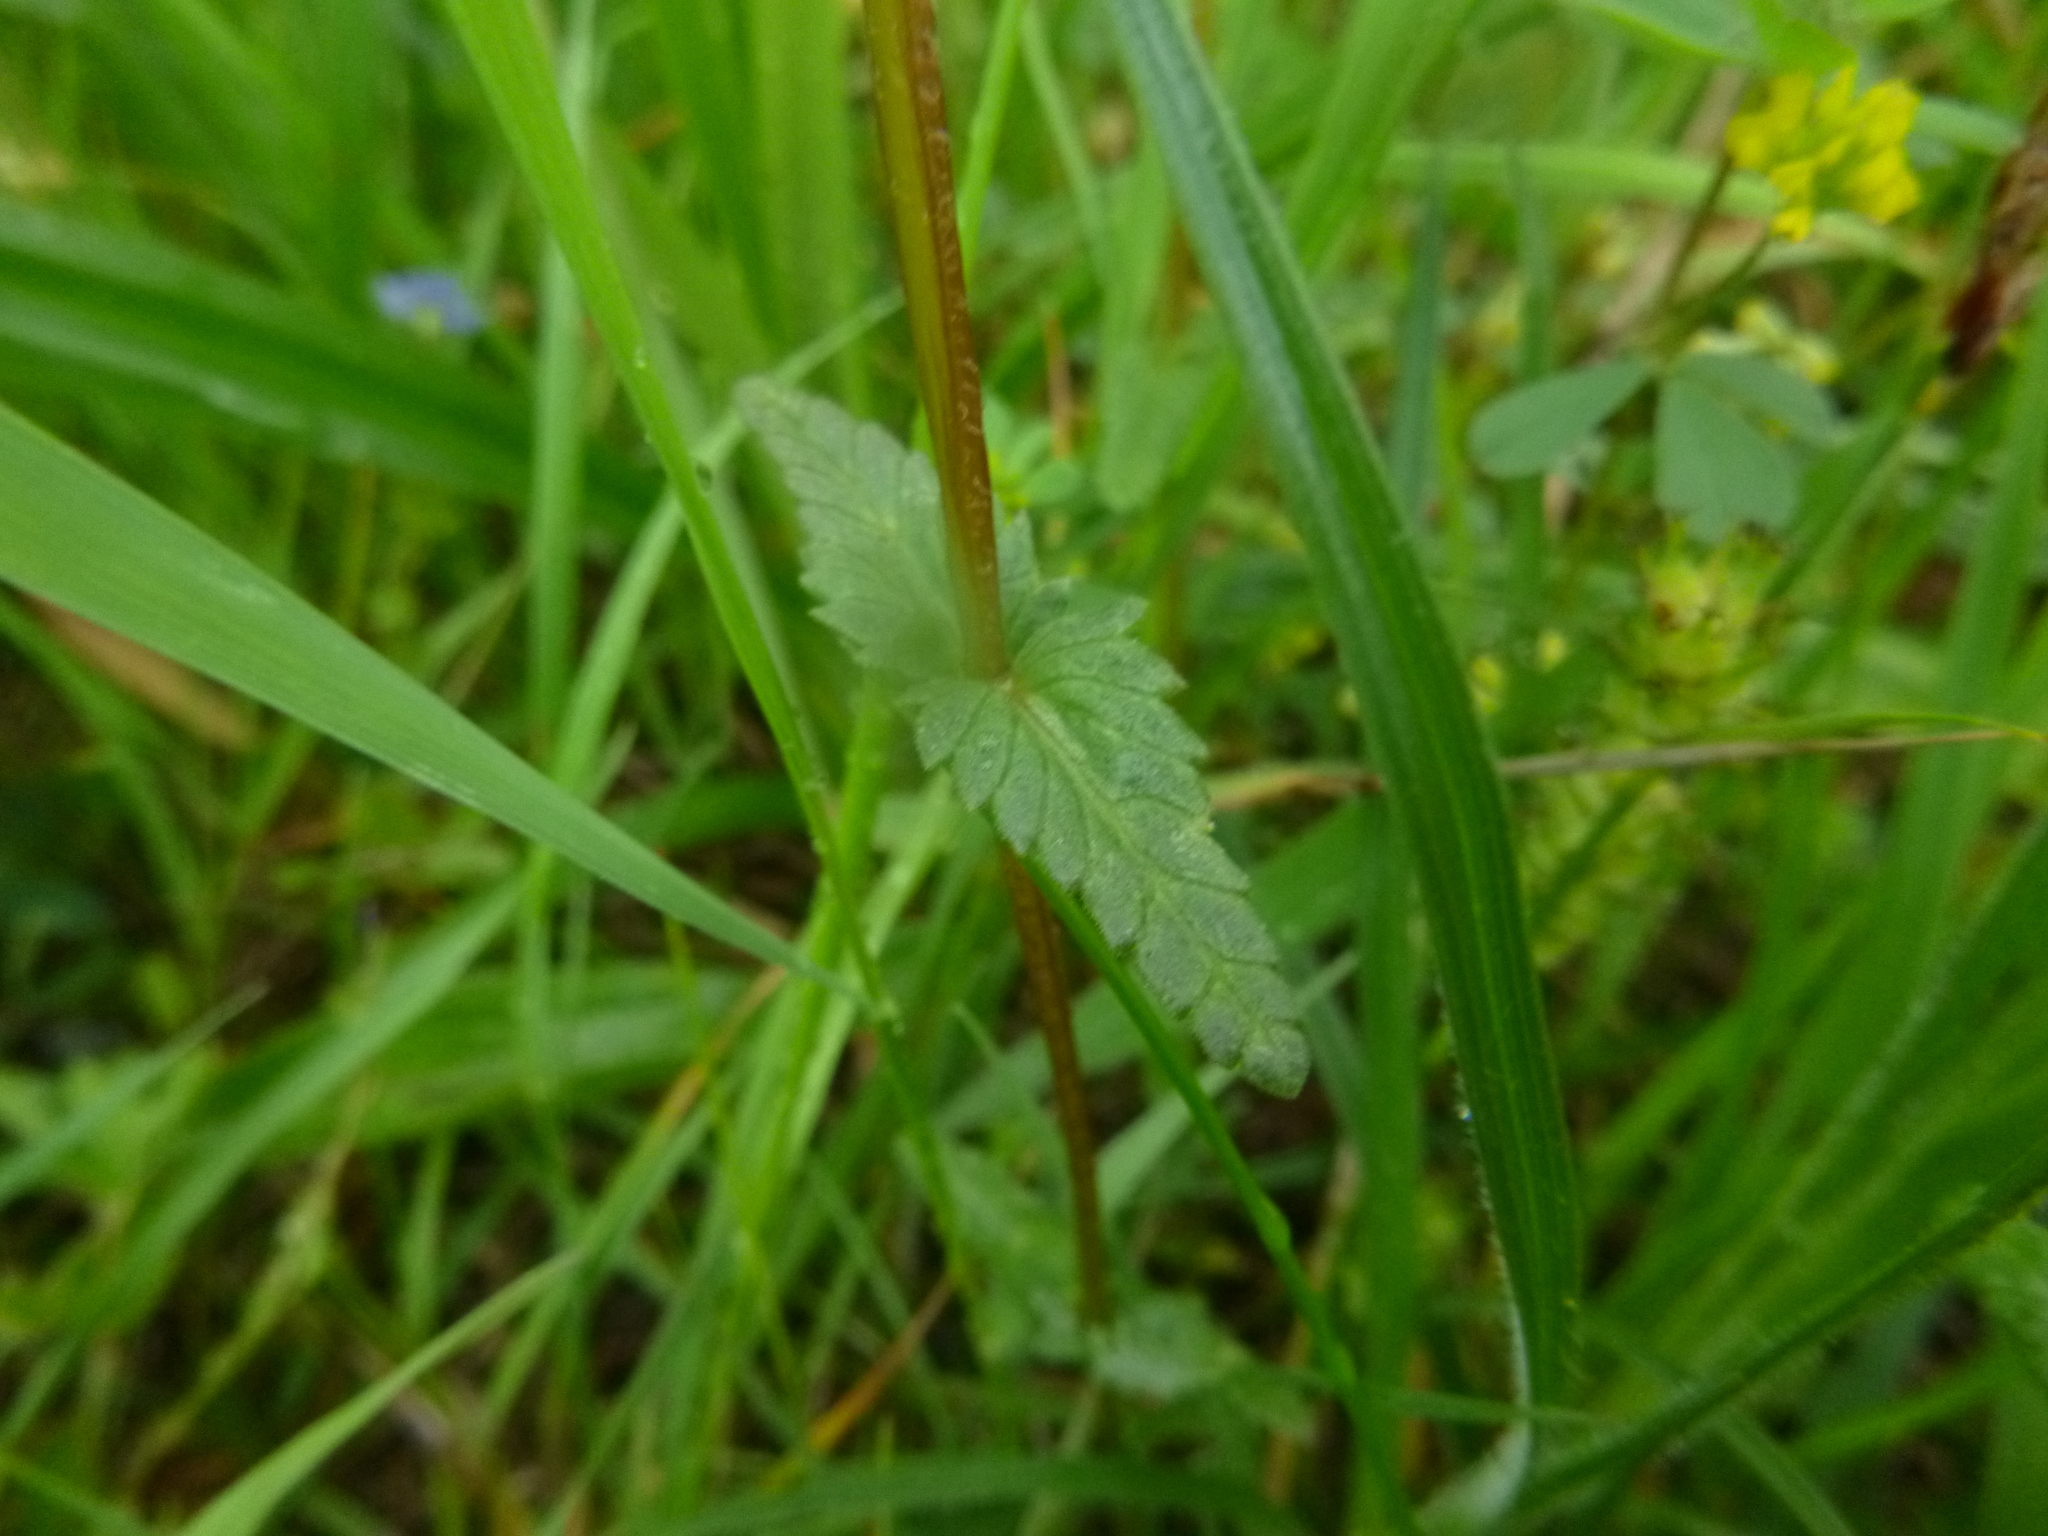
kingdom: Plantae
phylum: Tracheophyta
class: Magnoliopsida
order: Lamiales
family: Orobanchaceae
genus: Rhinanthus
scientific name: Rhinanthus minor
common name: Yellow-rattle
